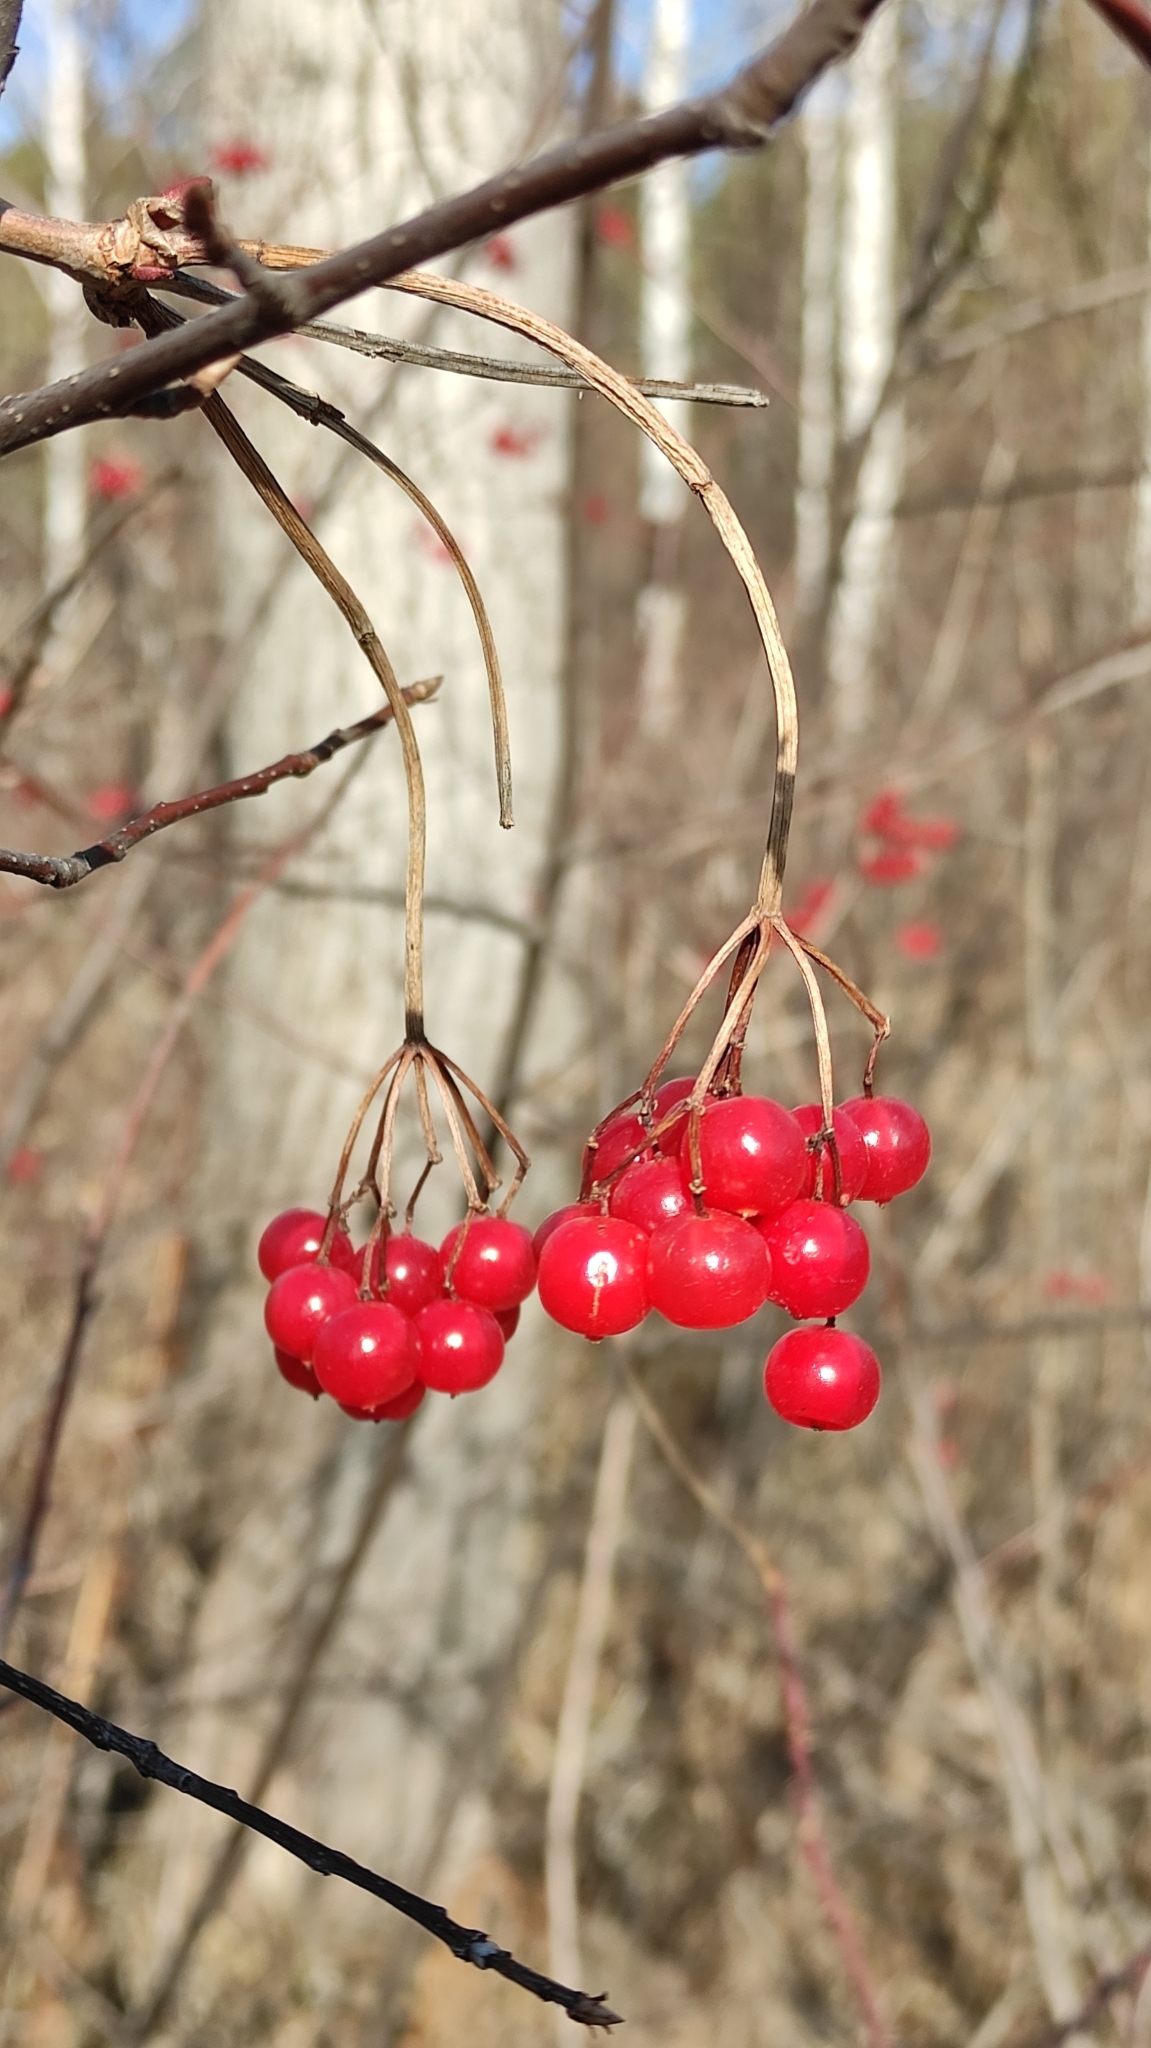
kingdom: Plantae
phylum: Tracheophyta
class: Magnoliopsida
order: Dipsacales
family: Viburnaceae
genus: Viburnum
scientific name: Viburnum opulus
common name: Guelder-rose
